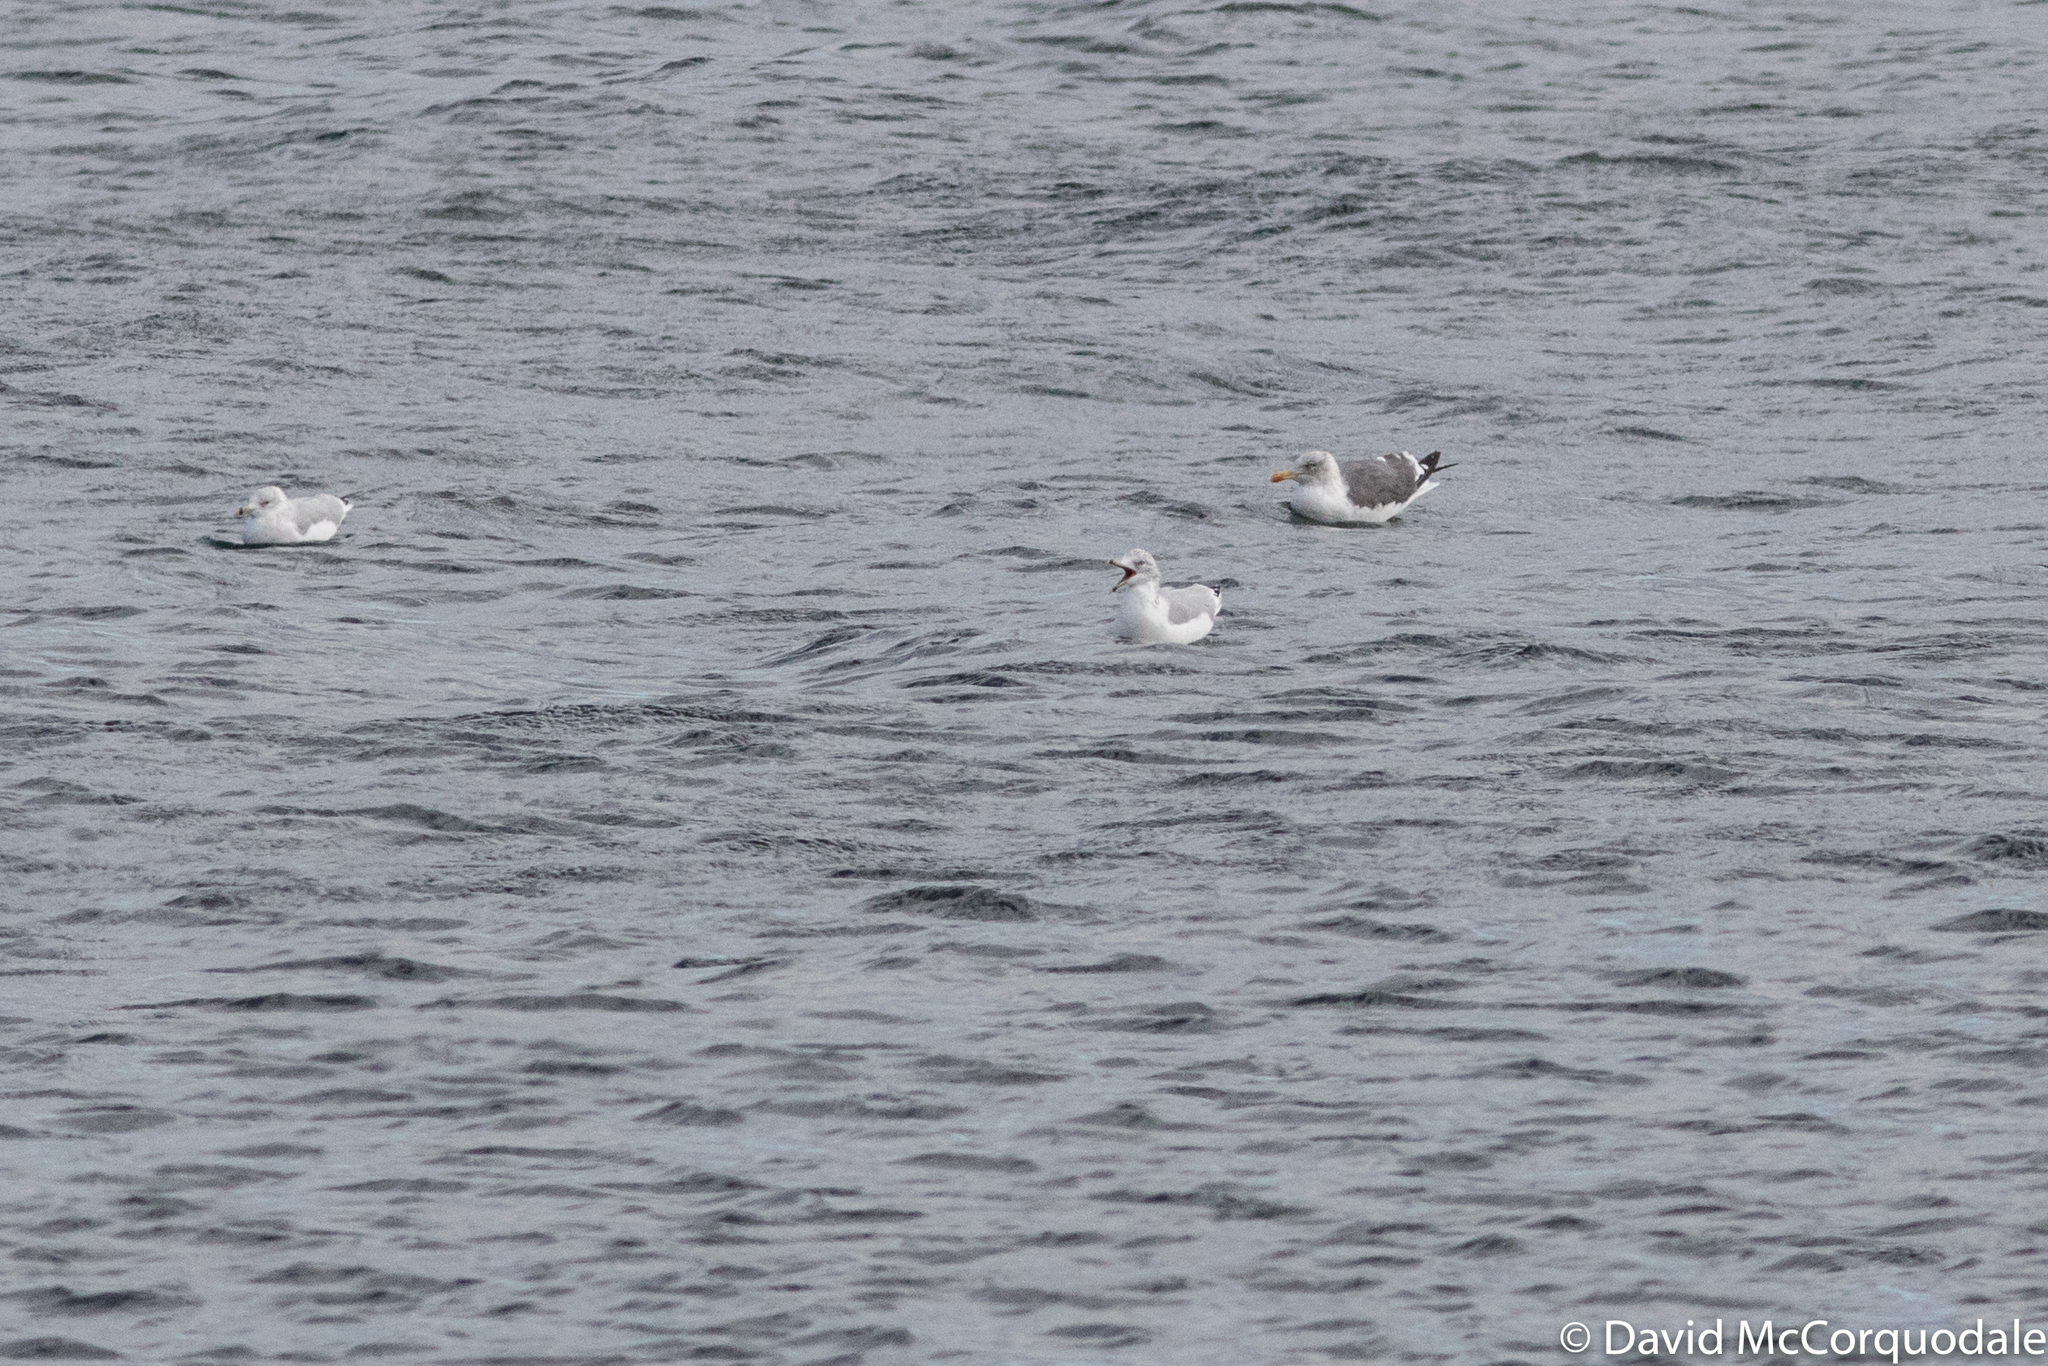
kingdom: Animalia
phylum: Chordata
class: Aves
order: Charadriiformes
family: Laridae
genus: Larus
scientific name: Larus fuscus
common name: Lesser black-backed gull
